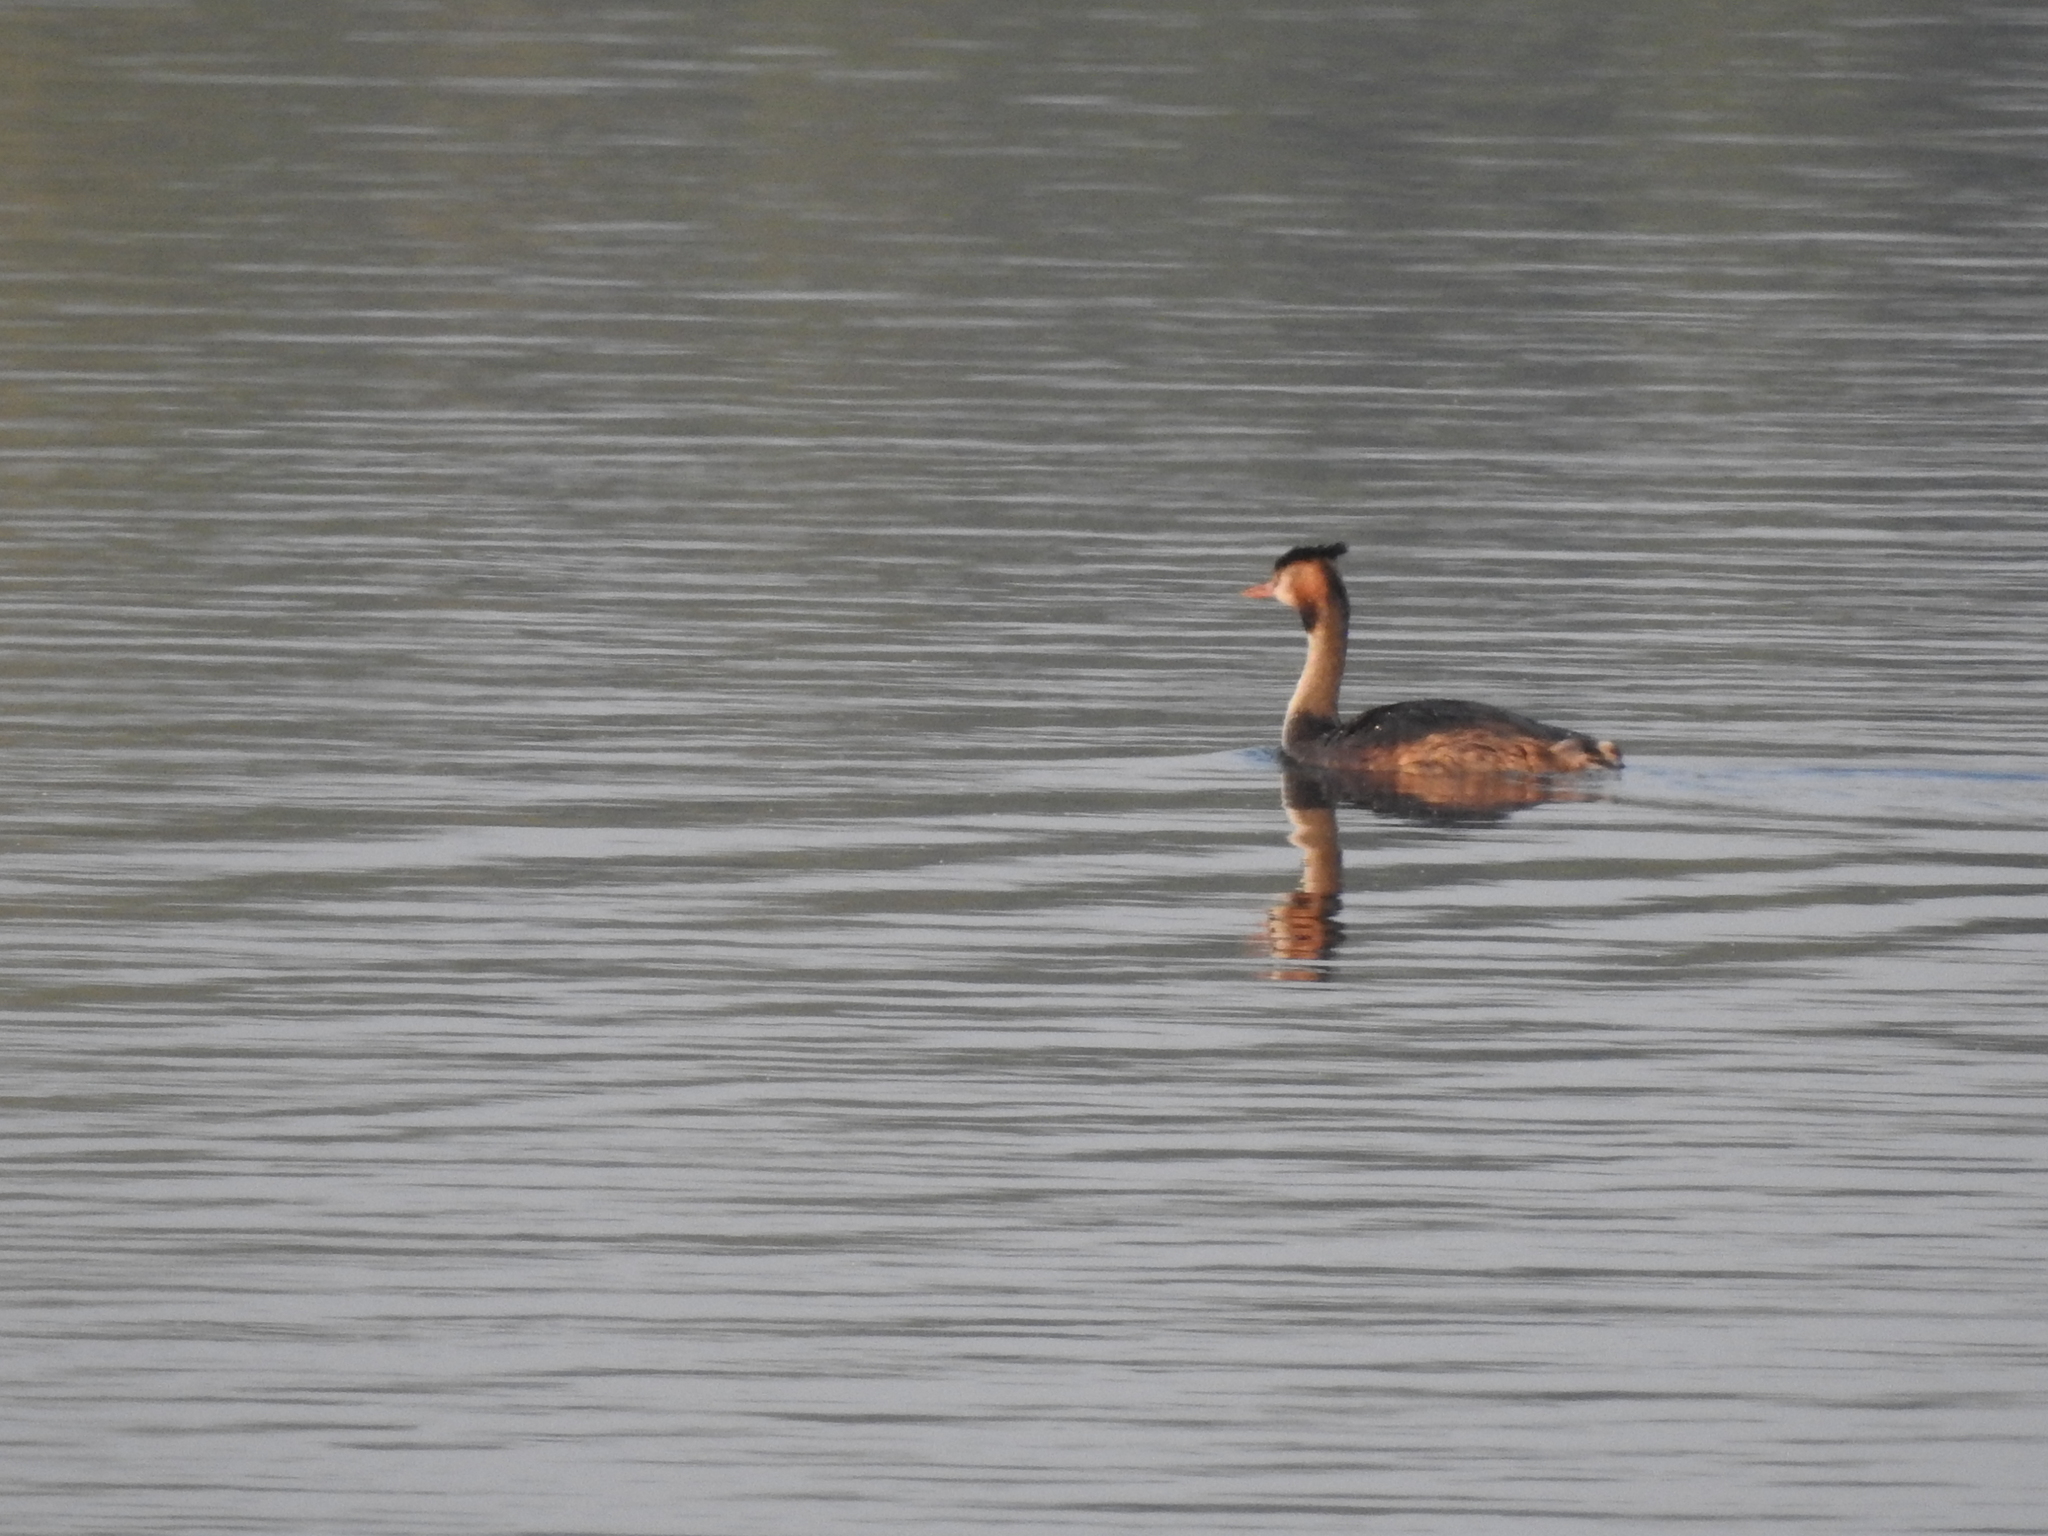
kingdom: Animalia
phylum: Chordata
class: Aves
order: Podicipediformes
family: Podicipedidae
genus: Podiceps
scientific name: Podiceps cristatus
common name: Great crested grebe
